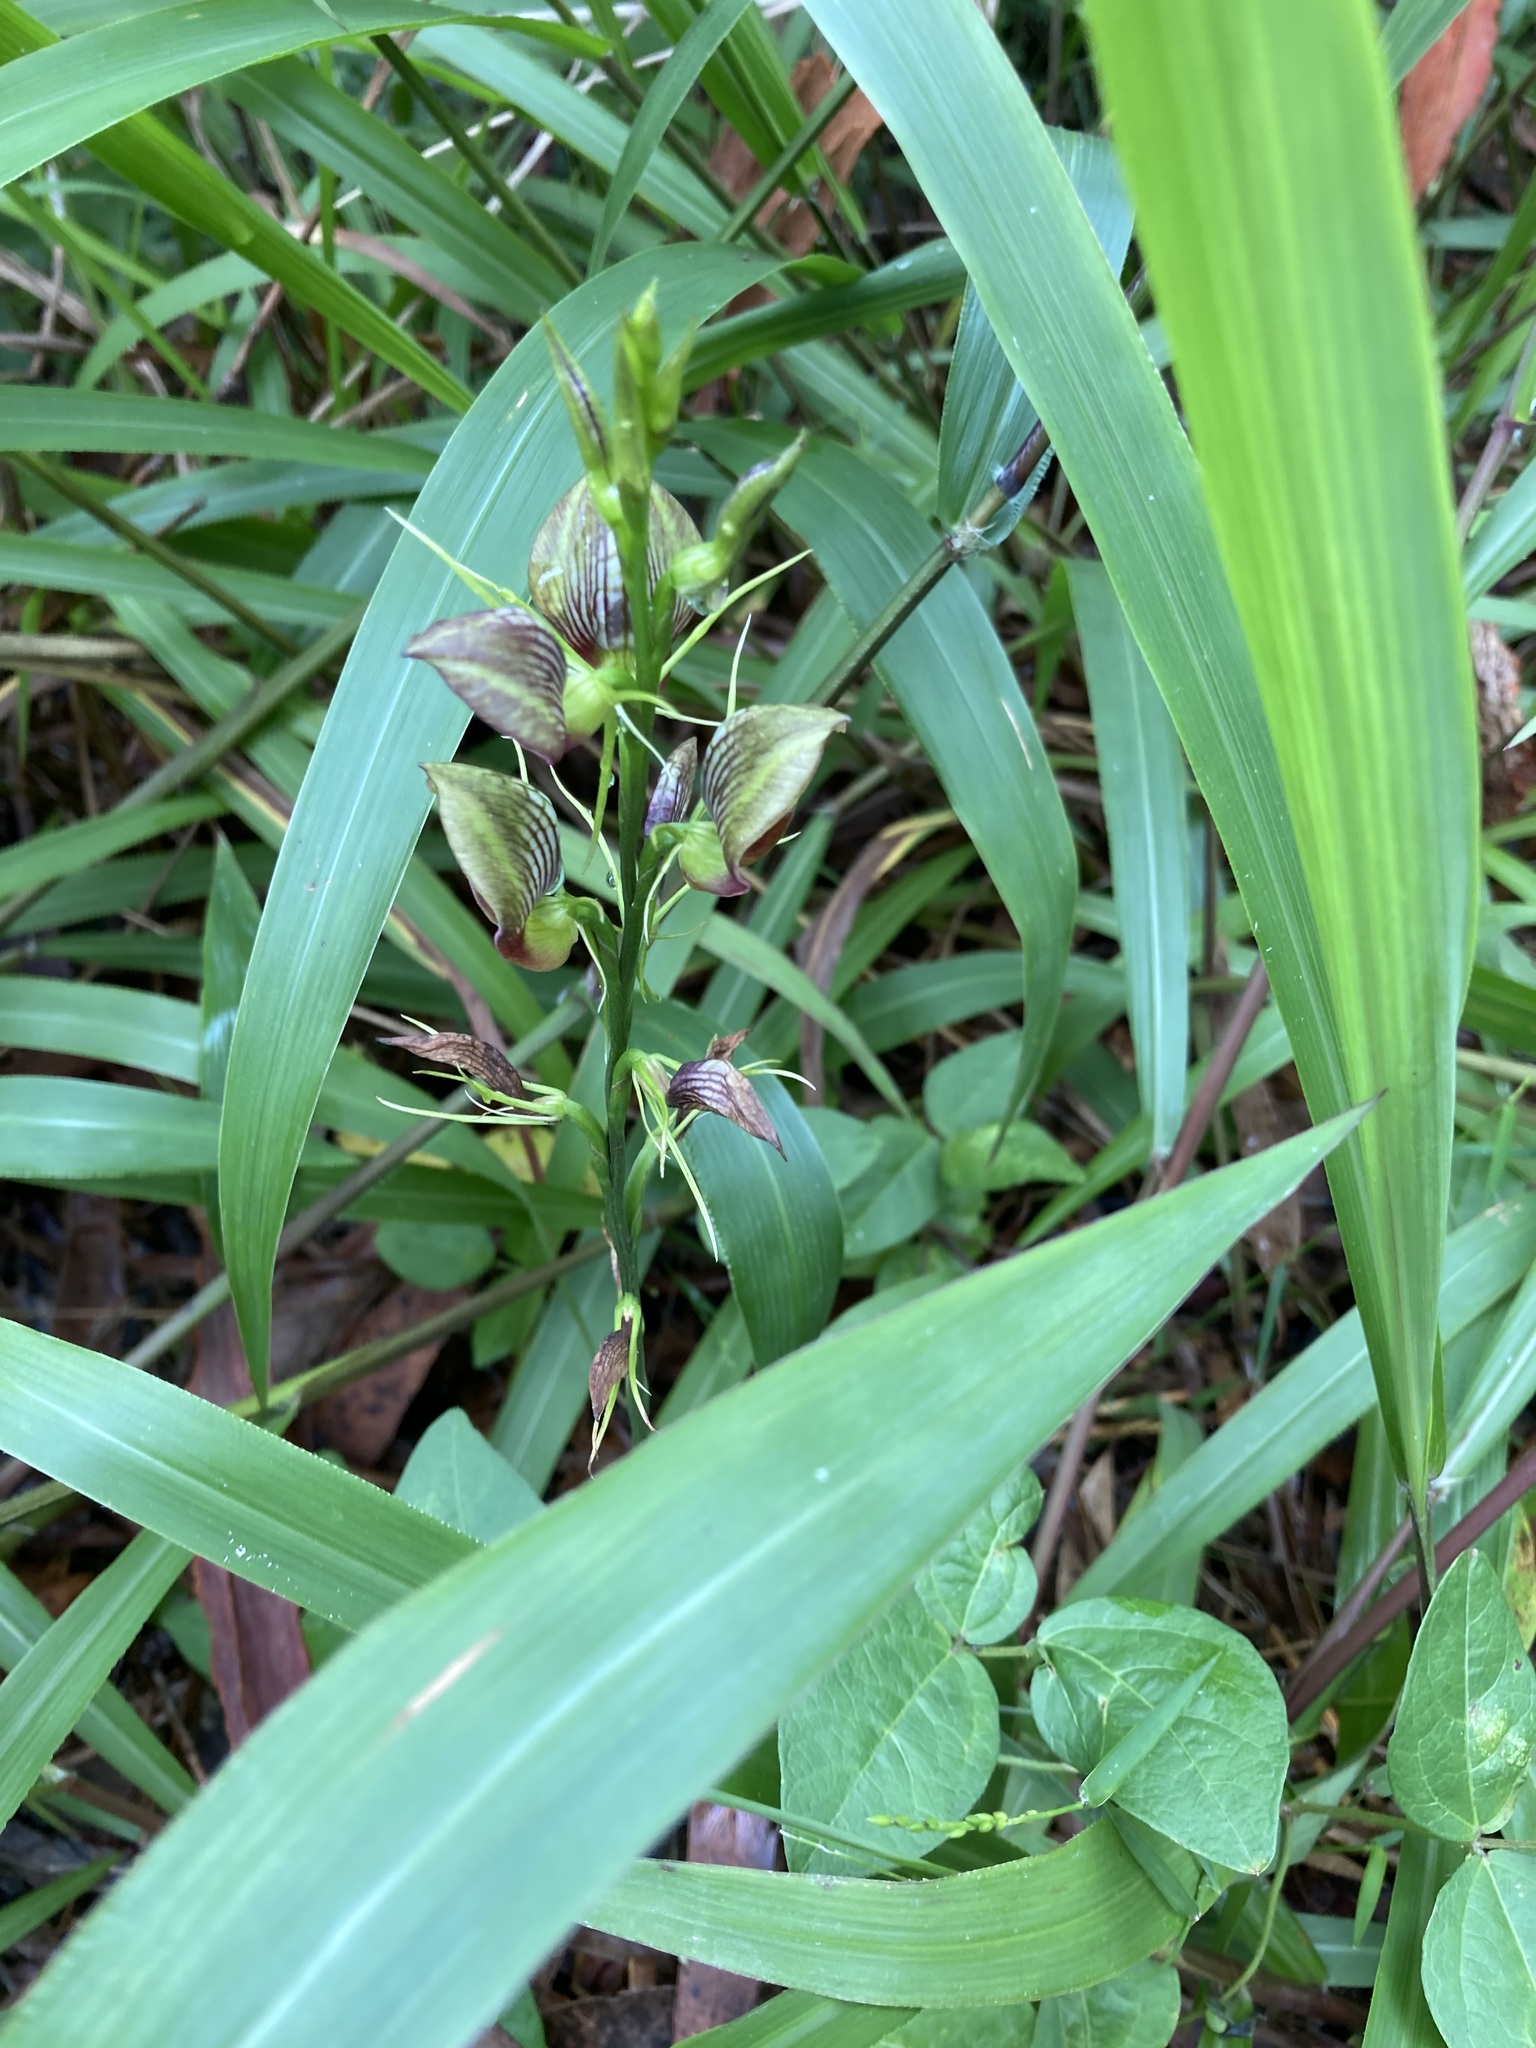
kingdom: Plantae
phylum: Tracheophyta
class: Liliopsida
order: Asparagales
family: Orchidaceae
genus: Cryptostylis
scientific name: Cryptostylis erecta
